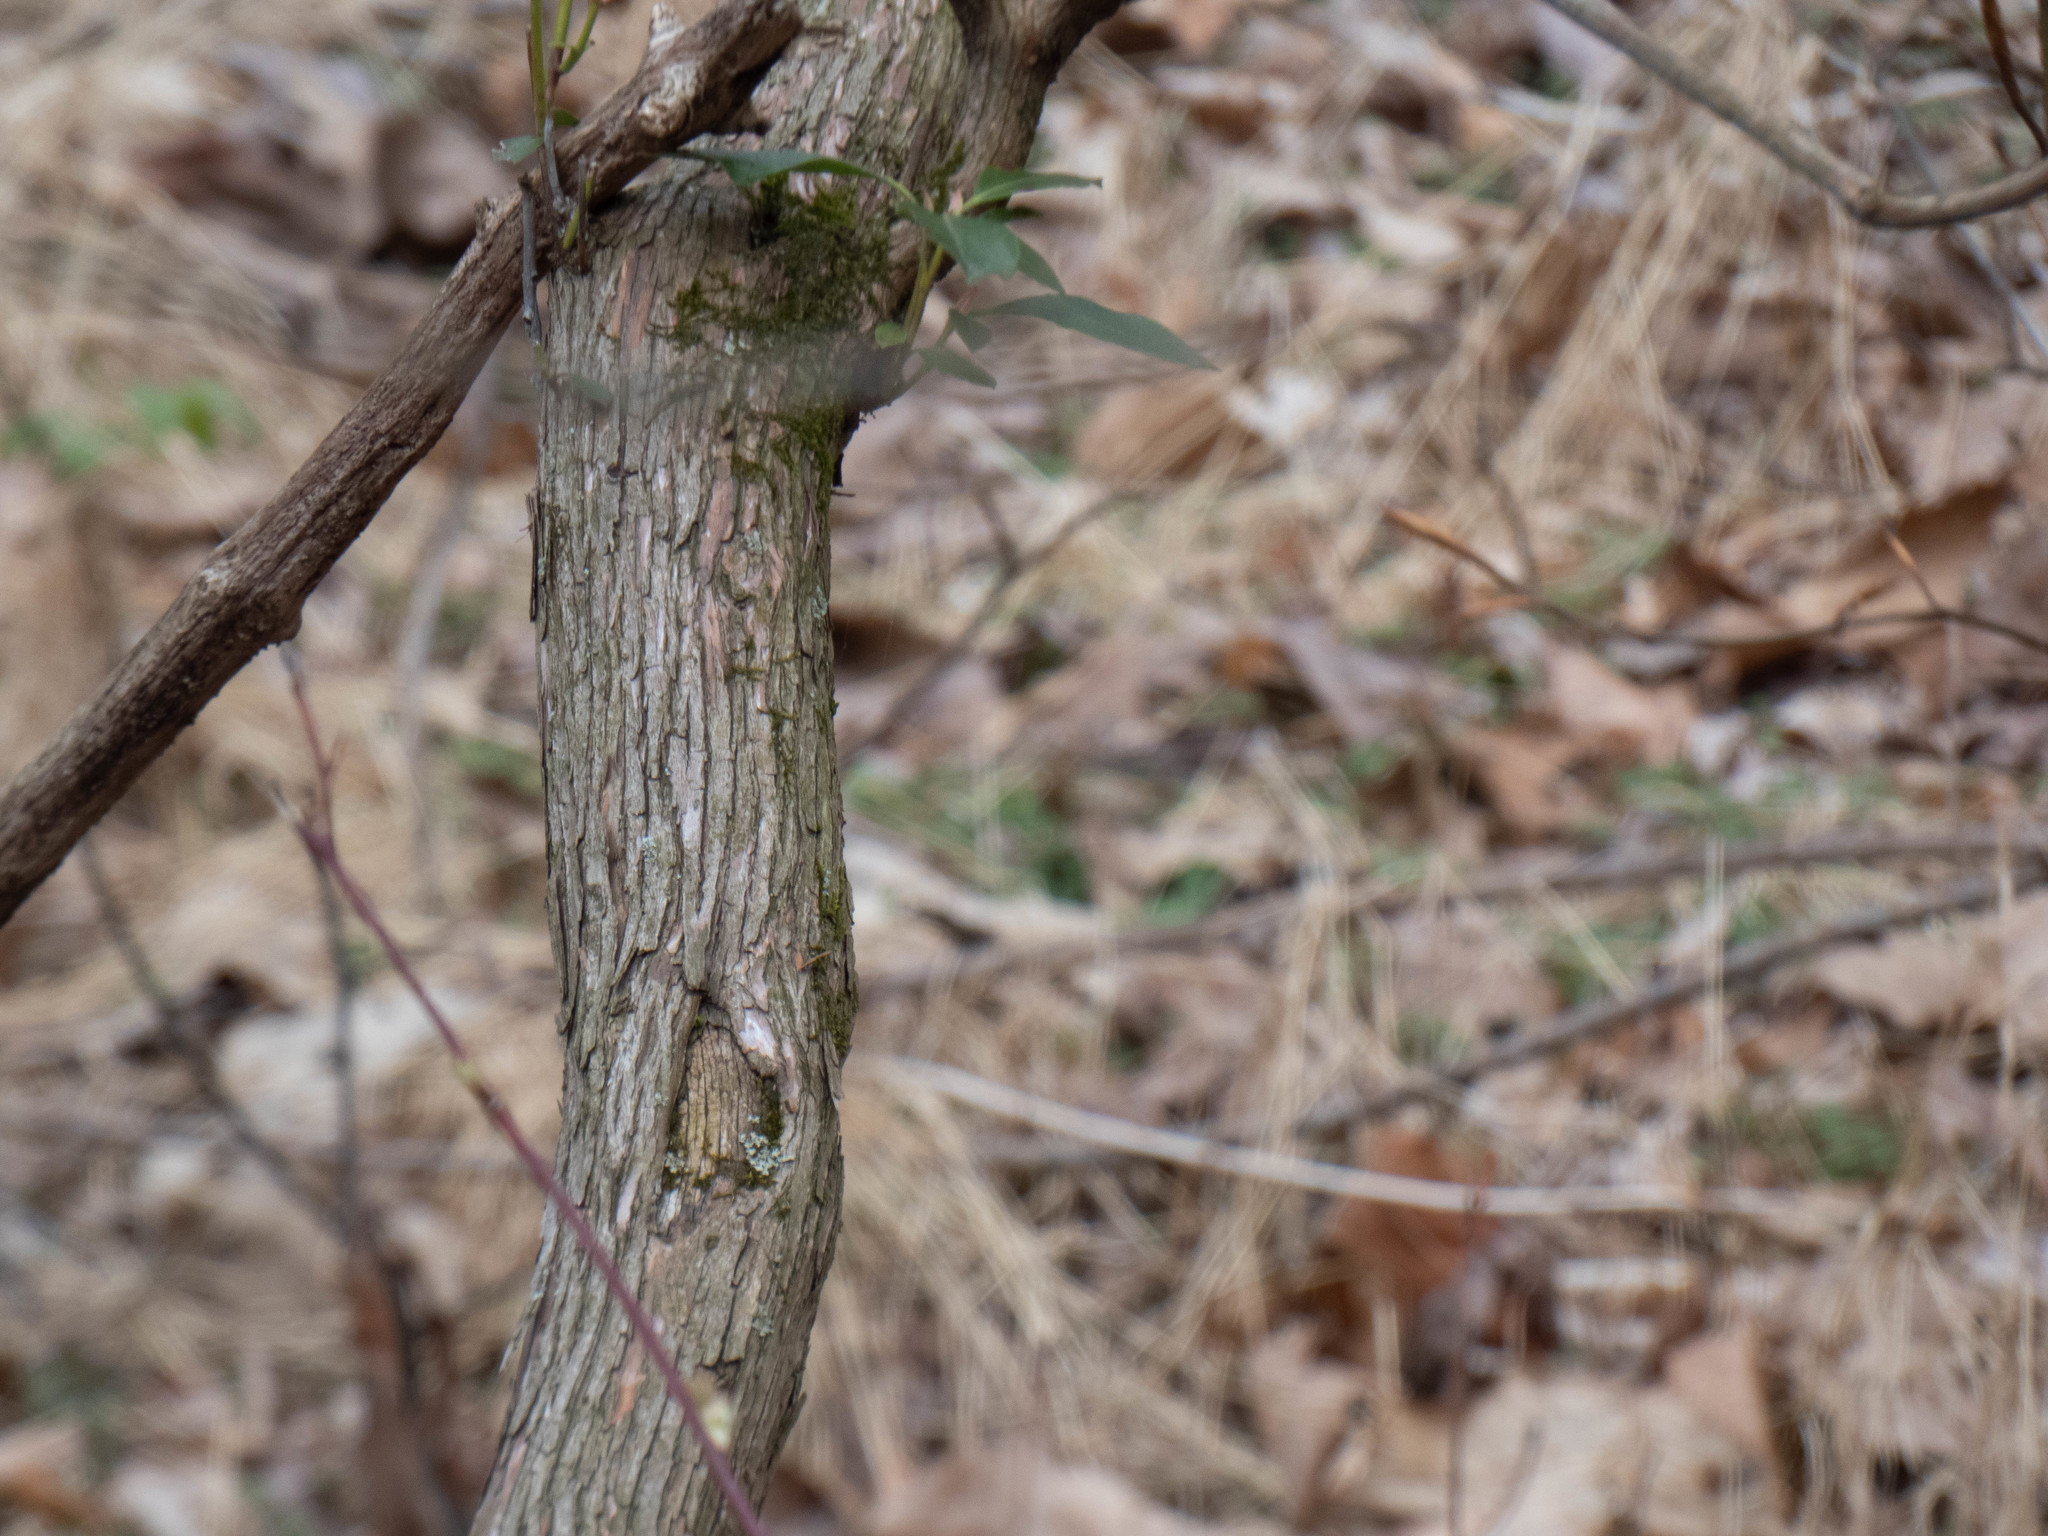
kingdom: Plantae
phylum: Tracheophyta
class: Magnoliopsida
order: Ericales
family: Ericaceae
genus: Kalmia
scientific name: Kalmia latifolia
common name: Mountain-laurel
